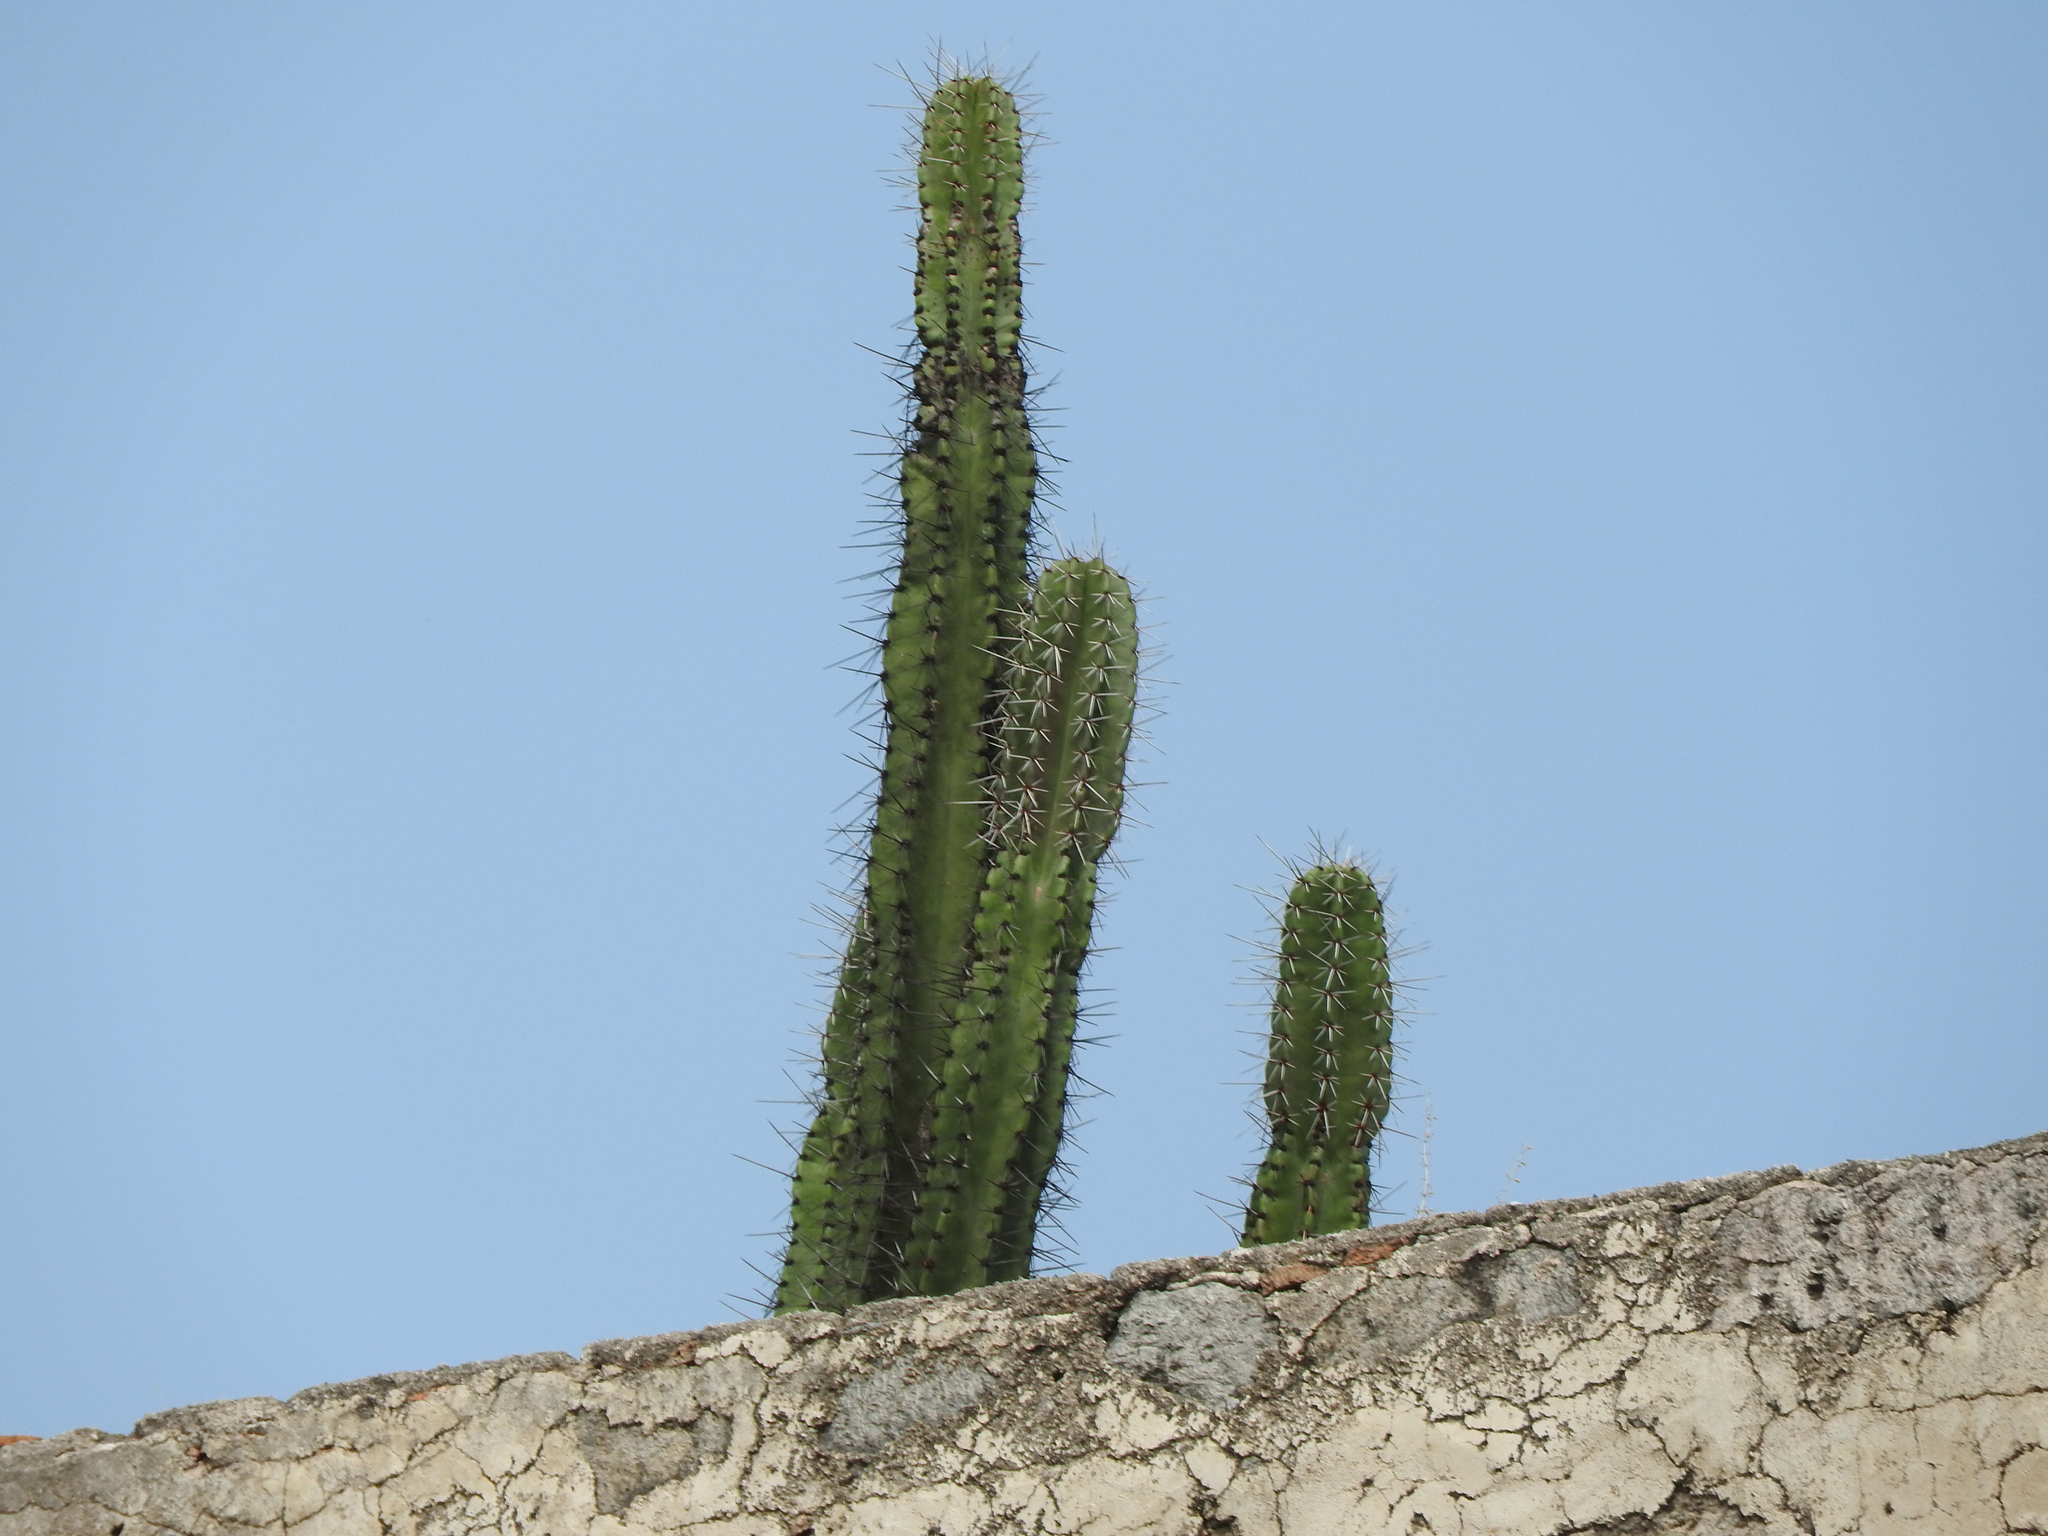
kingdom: Plantae
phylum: Tracheophyta
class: Magnoliopsida
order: Caryophyllales
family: Cactaceae
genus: Stenocereus
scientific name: Stenocereus queretaroensis
